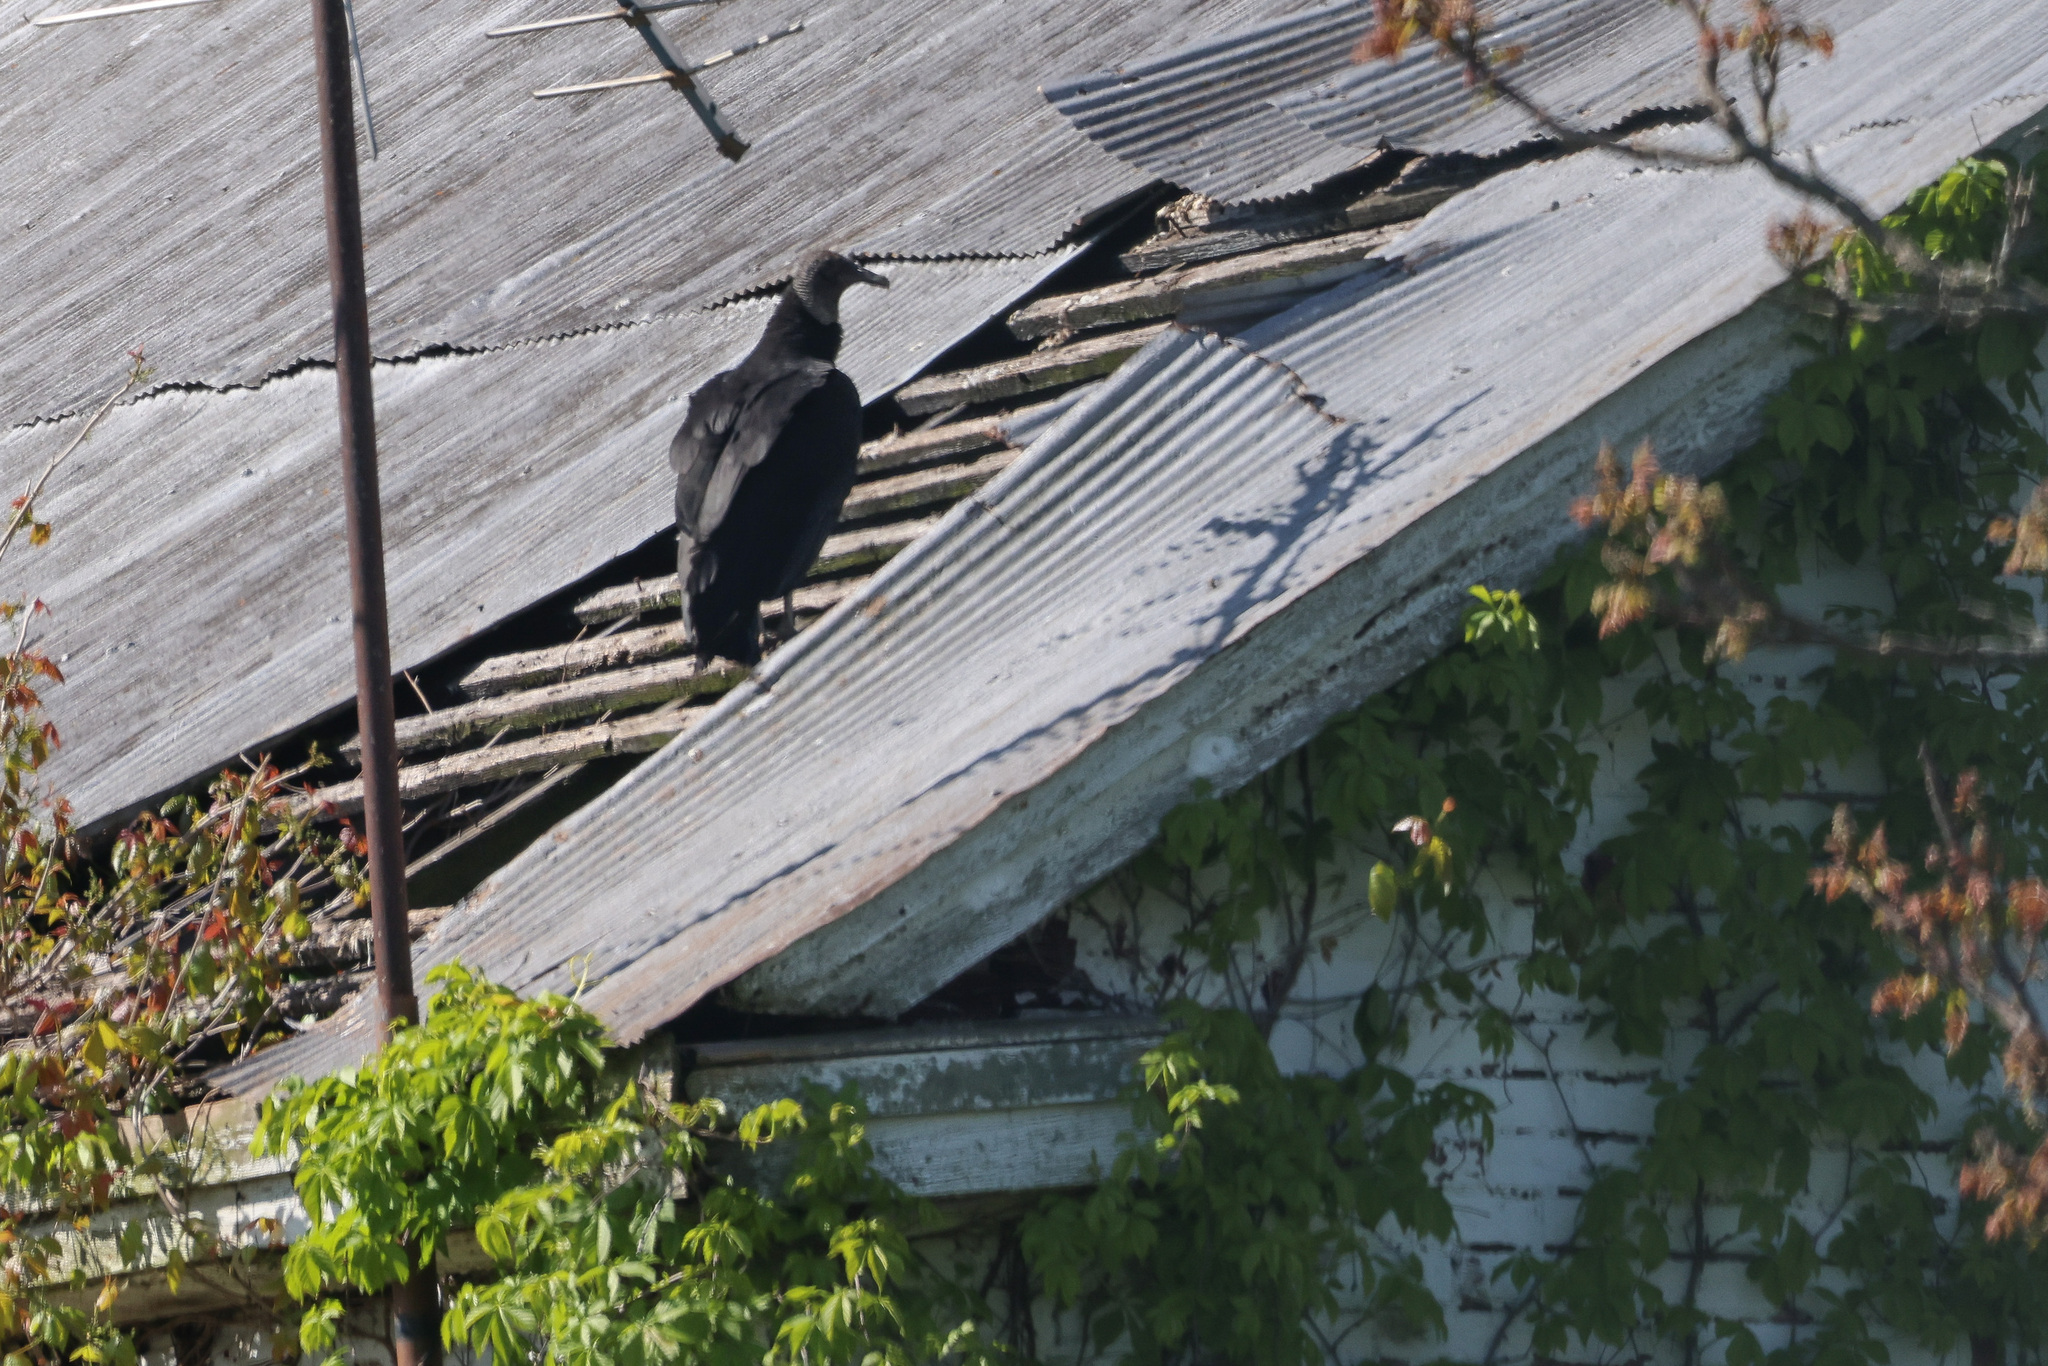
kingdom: Animalia
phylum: Chordata
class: Aves
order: Accipitriformes
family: Cathartidae
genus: Coragyps
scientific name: Coragyps atratus
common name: Black vulture
